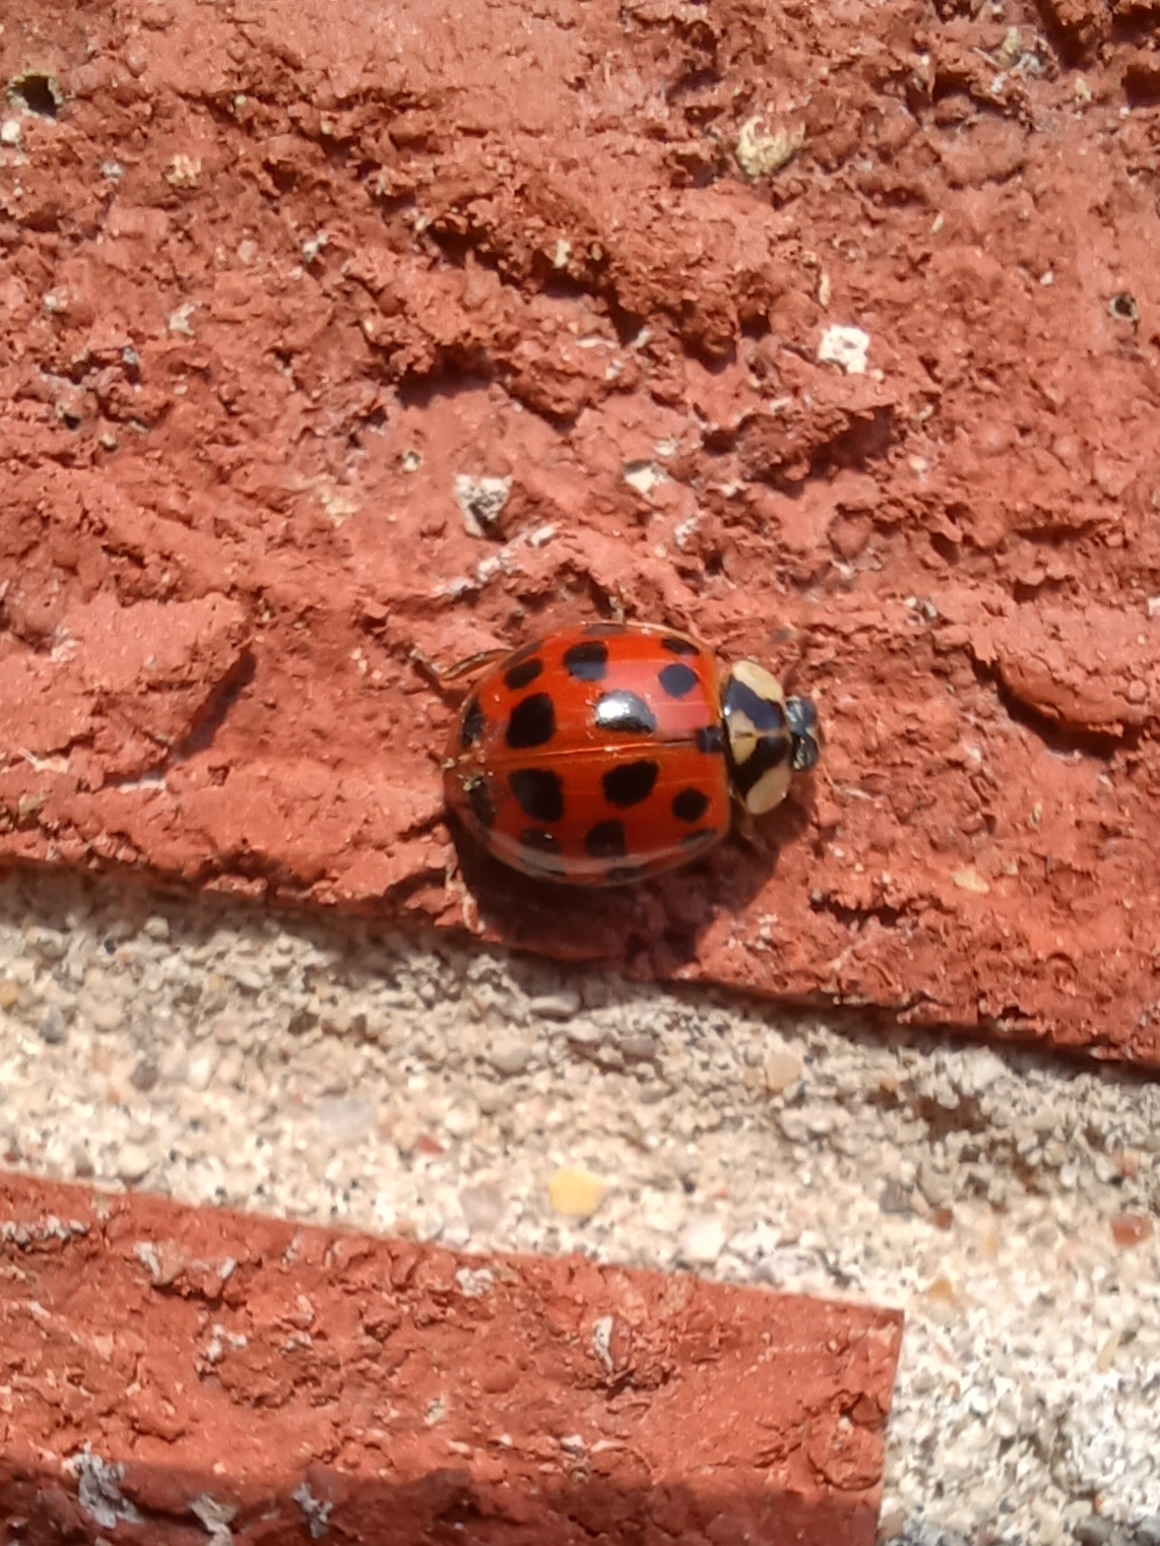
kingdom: Fungi
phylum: Ascomycota
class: Laboulbeniomycetes
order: Laboulbeniales
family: Laboulbeniaceae
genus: Hesperomyces
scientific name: Hesperomyces harmoniae
